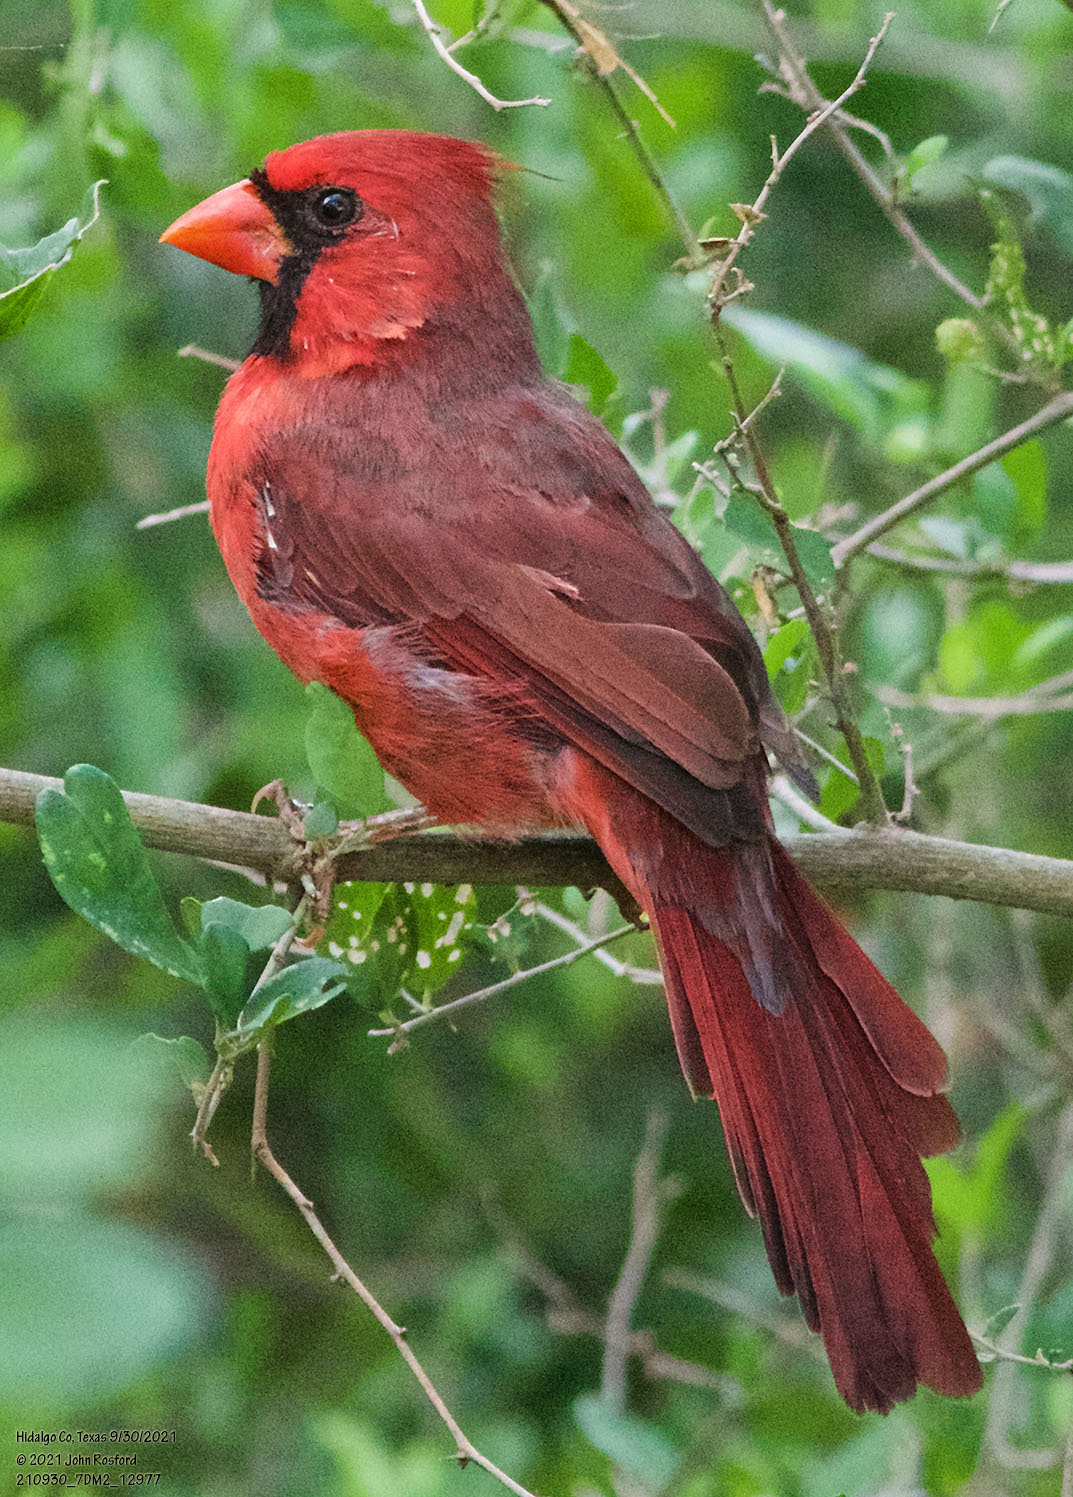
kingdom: Animalia
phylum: Chordata
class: Aves
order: Passeriformes
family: Cardinalidae
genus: Cardinalis
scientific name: Cardinalis cardinalis
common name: Northern cardinal
